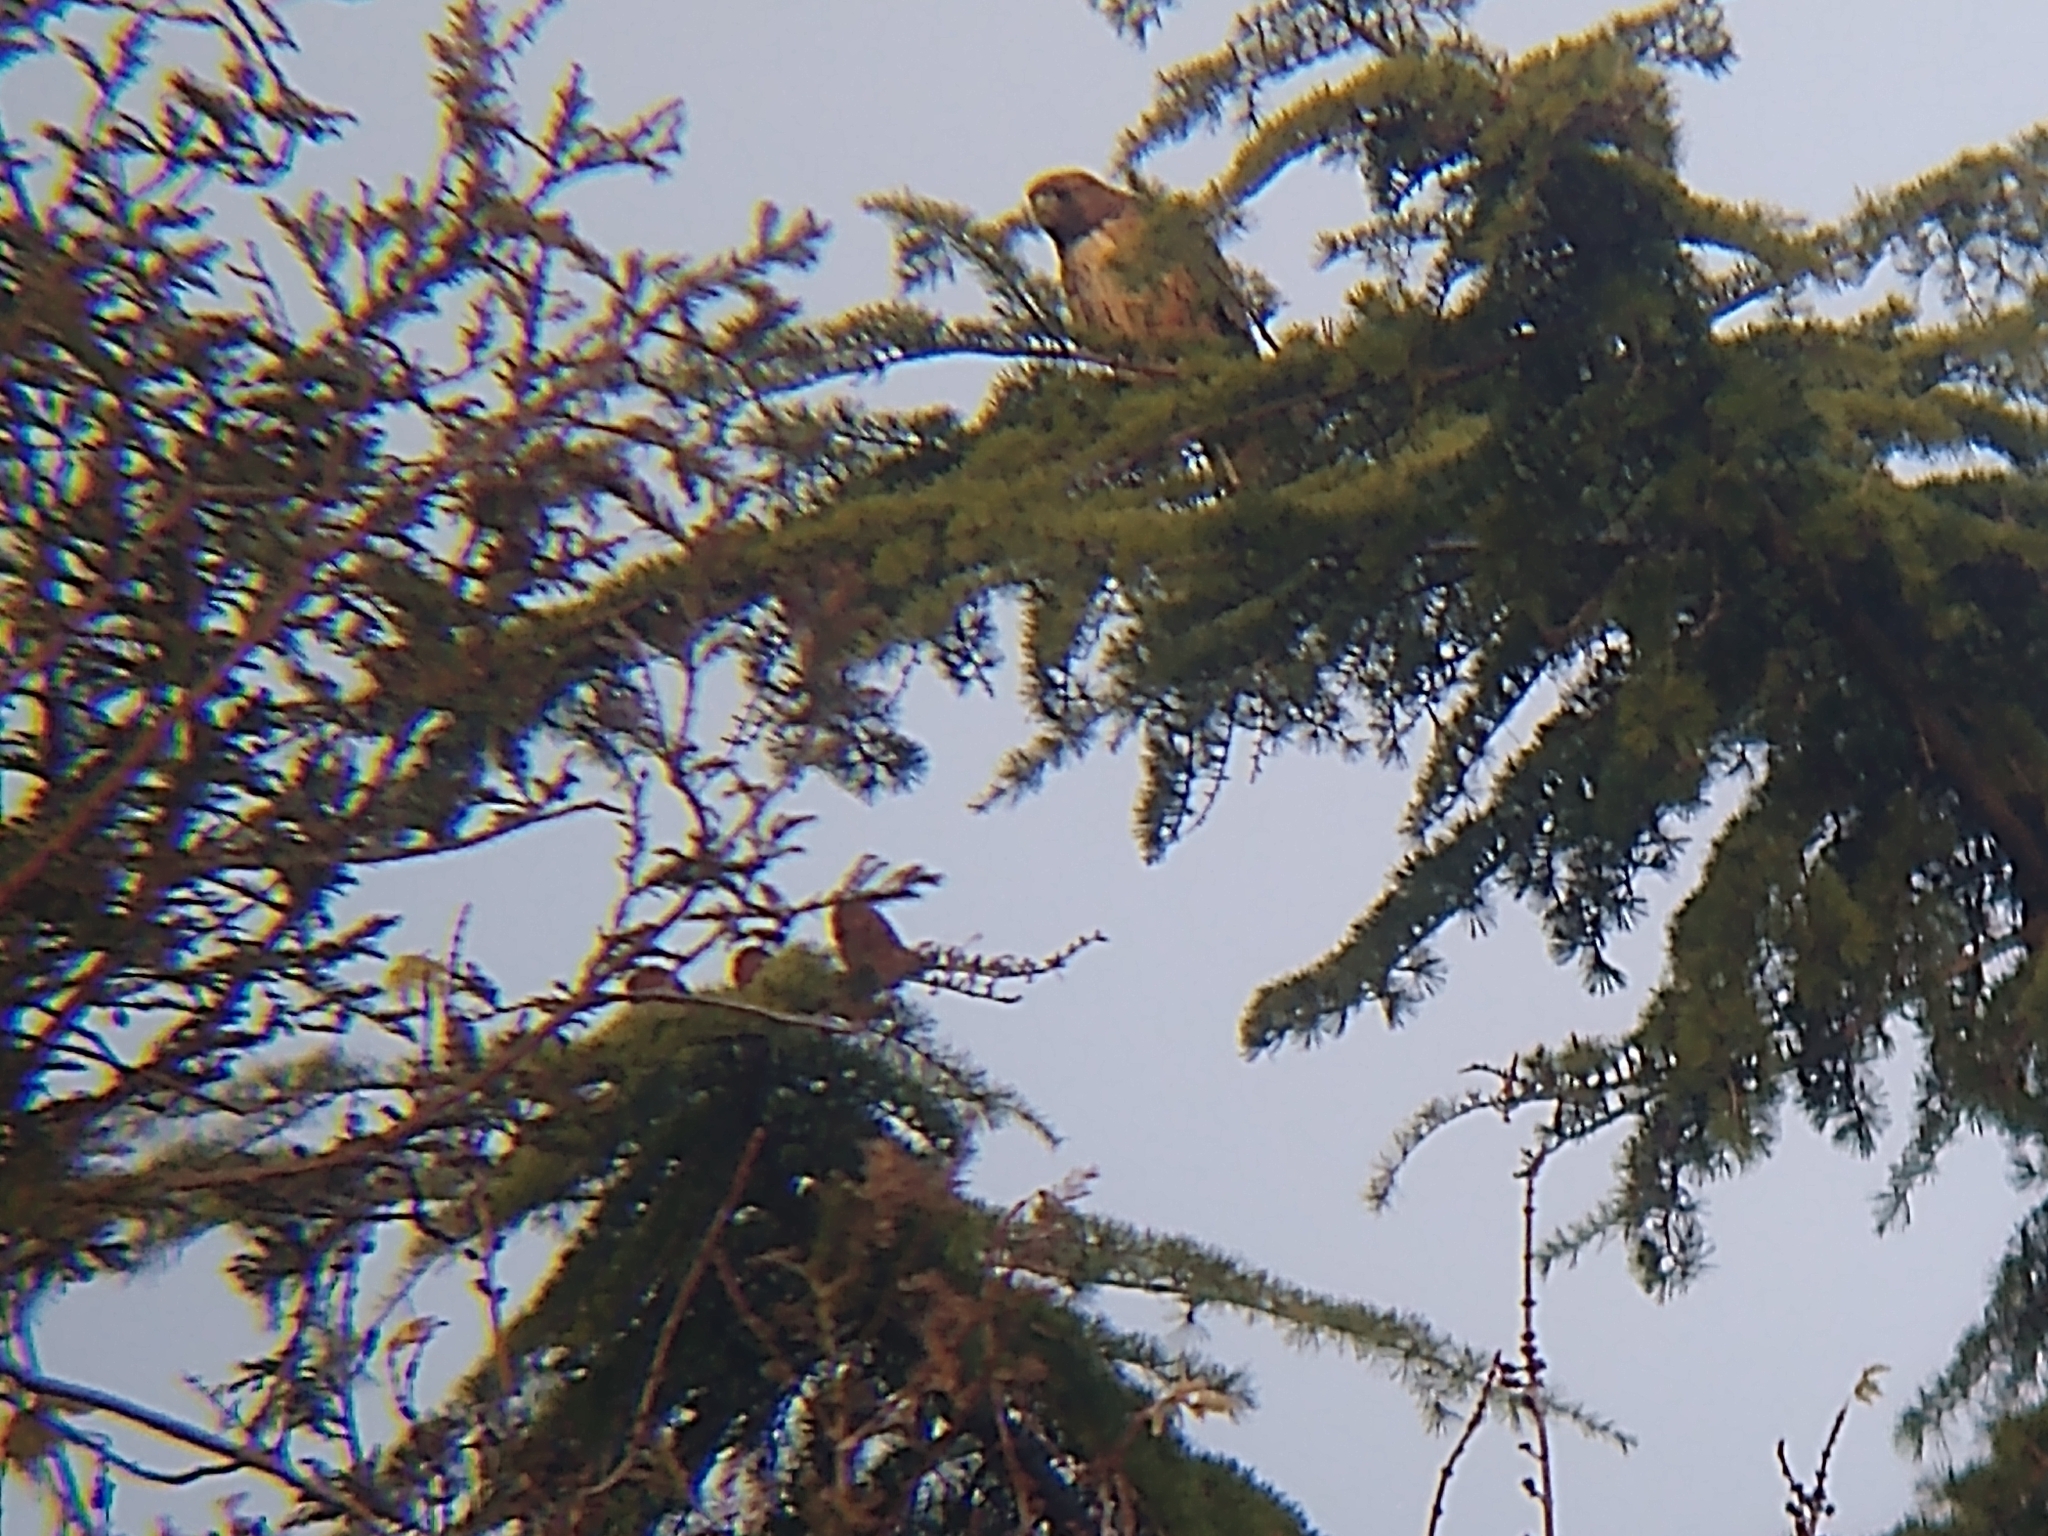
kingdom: Animalia
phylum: Chordata
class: Aves
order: Accipitriformes
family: Accipitridae
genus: Buteo
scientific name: Buteo jamaicensis
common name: Red-tailed hawk
